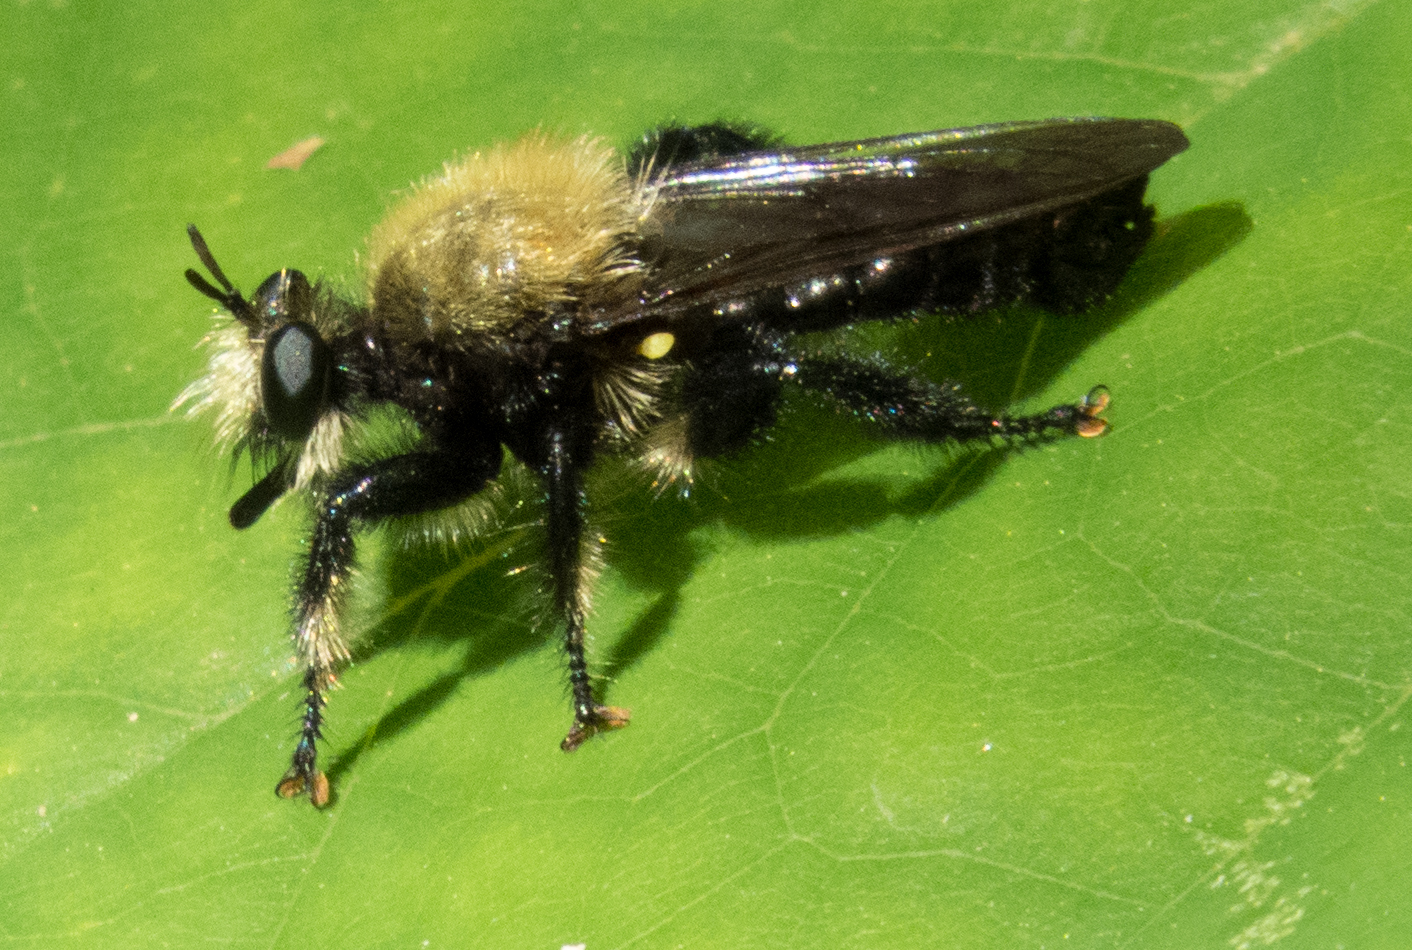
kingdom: Animalia
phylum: Arthropoda
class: Insecta
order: Diptera
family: Asilidae
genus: Laphria
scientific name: Laphria flavicollis
